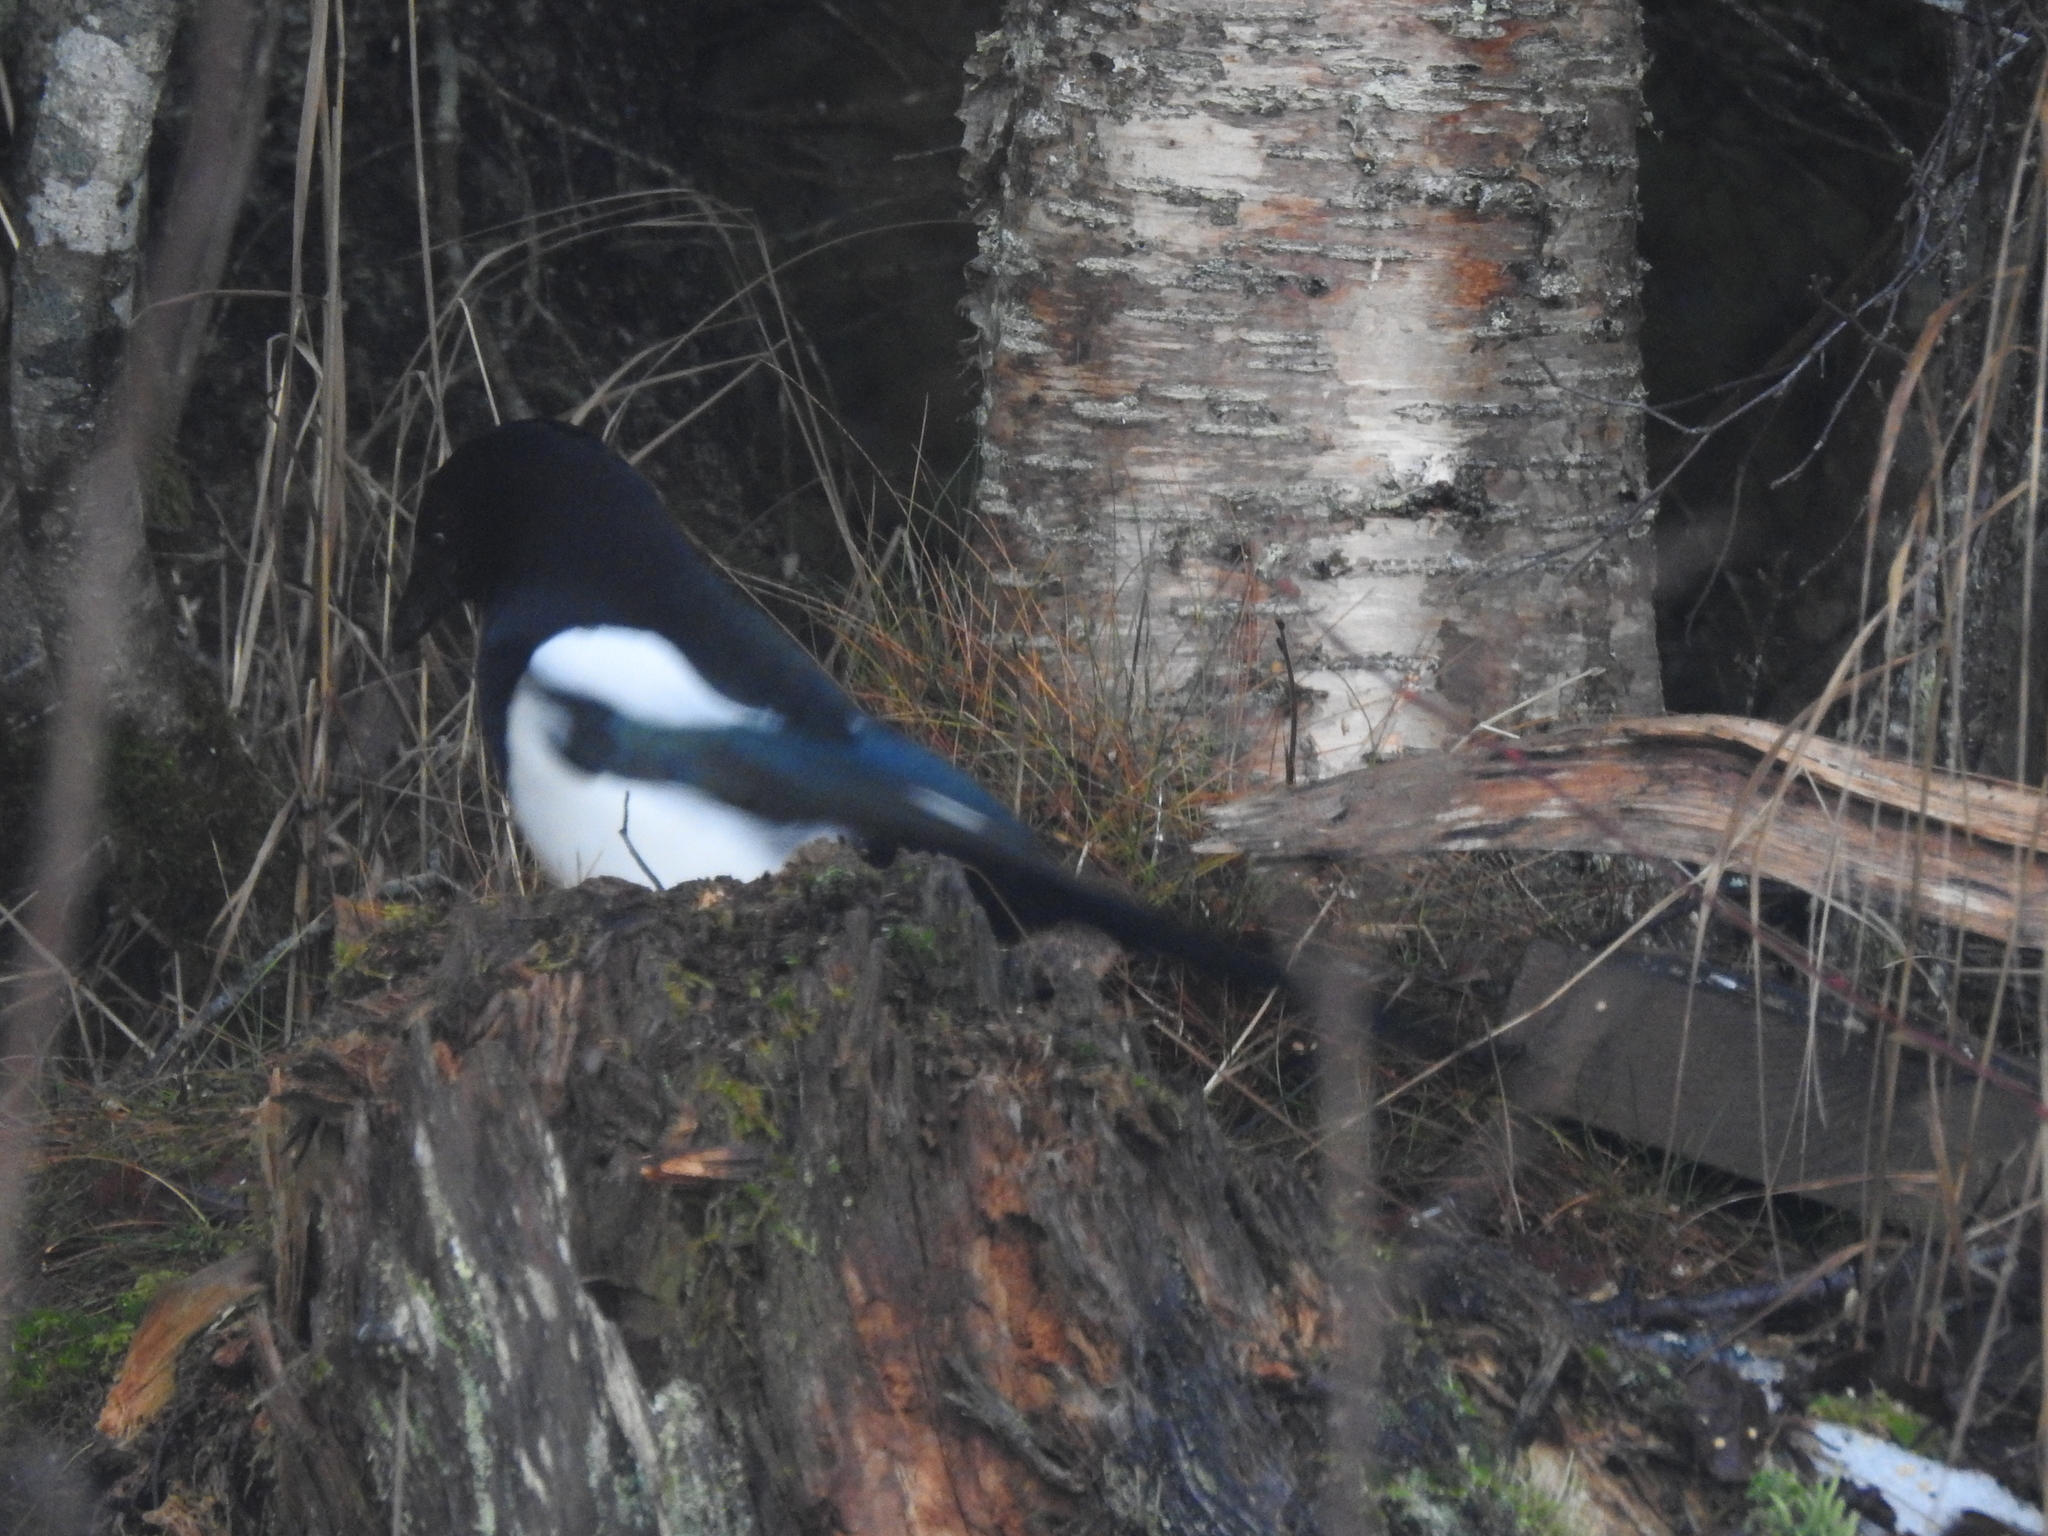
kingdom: Animalia
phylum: Chordata
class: Aves
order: Passeriformes
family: Corvidae
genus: Pica
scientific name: Pica pica
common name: Eurasian magpie
